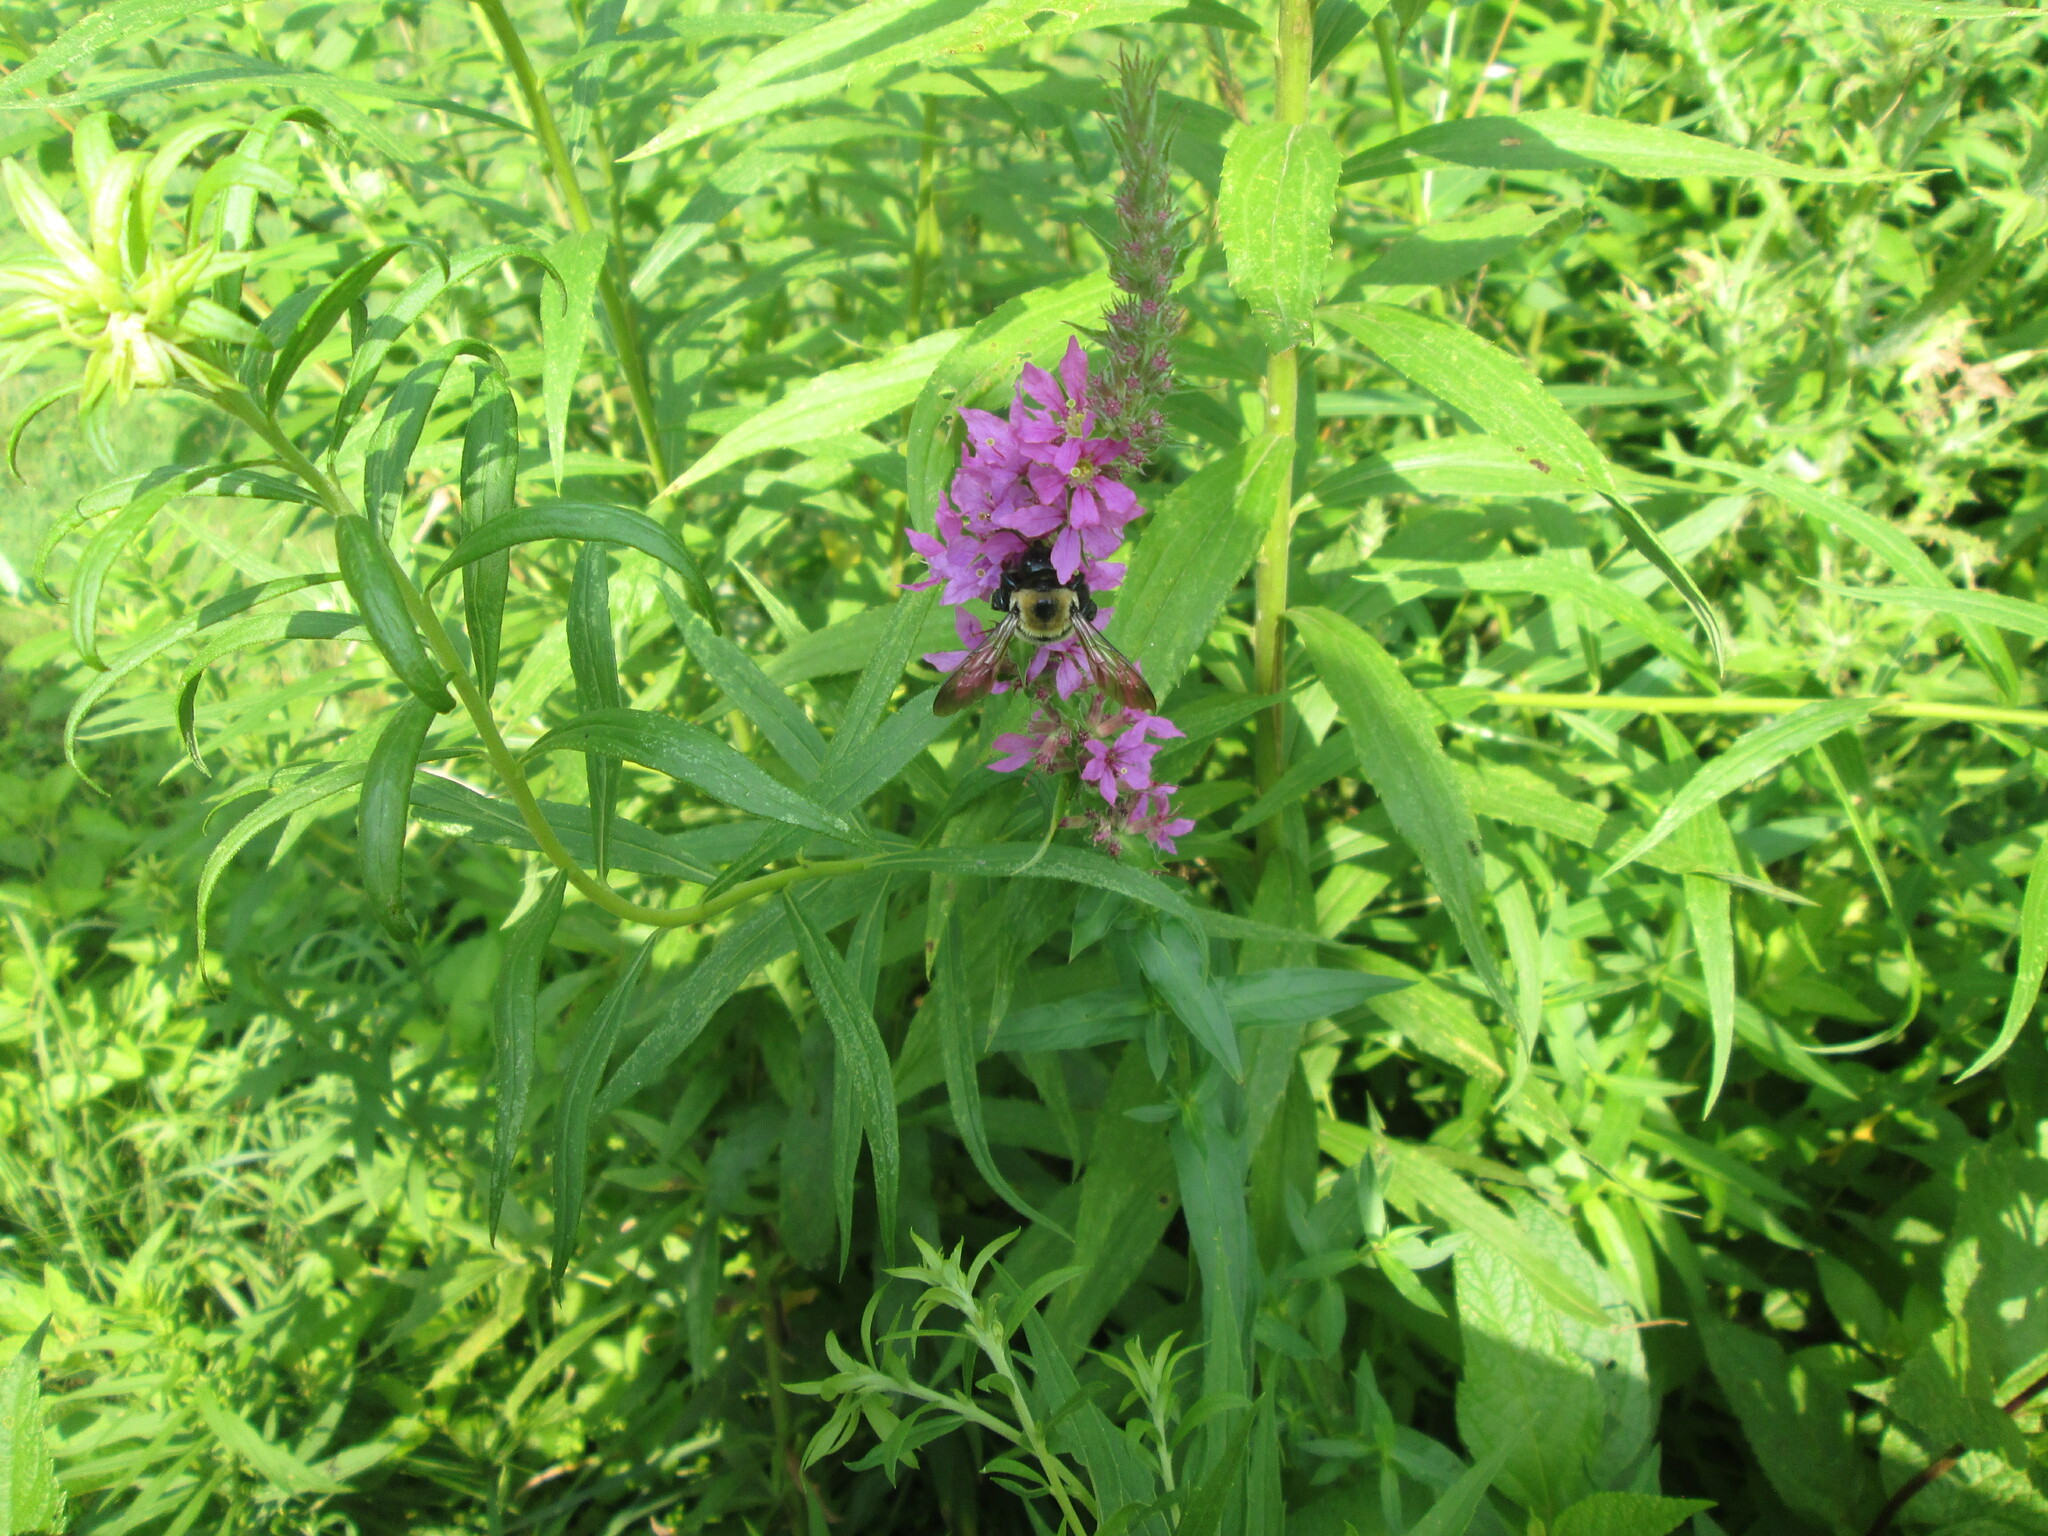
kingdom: Animalia
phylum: Arthropoda
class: Insecta
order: Hymenoptera
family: Apidae
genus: Xylocopa
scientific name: Xylocopa virginica
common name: Carpenter bee
